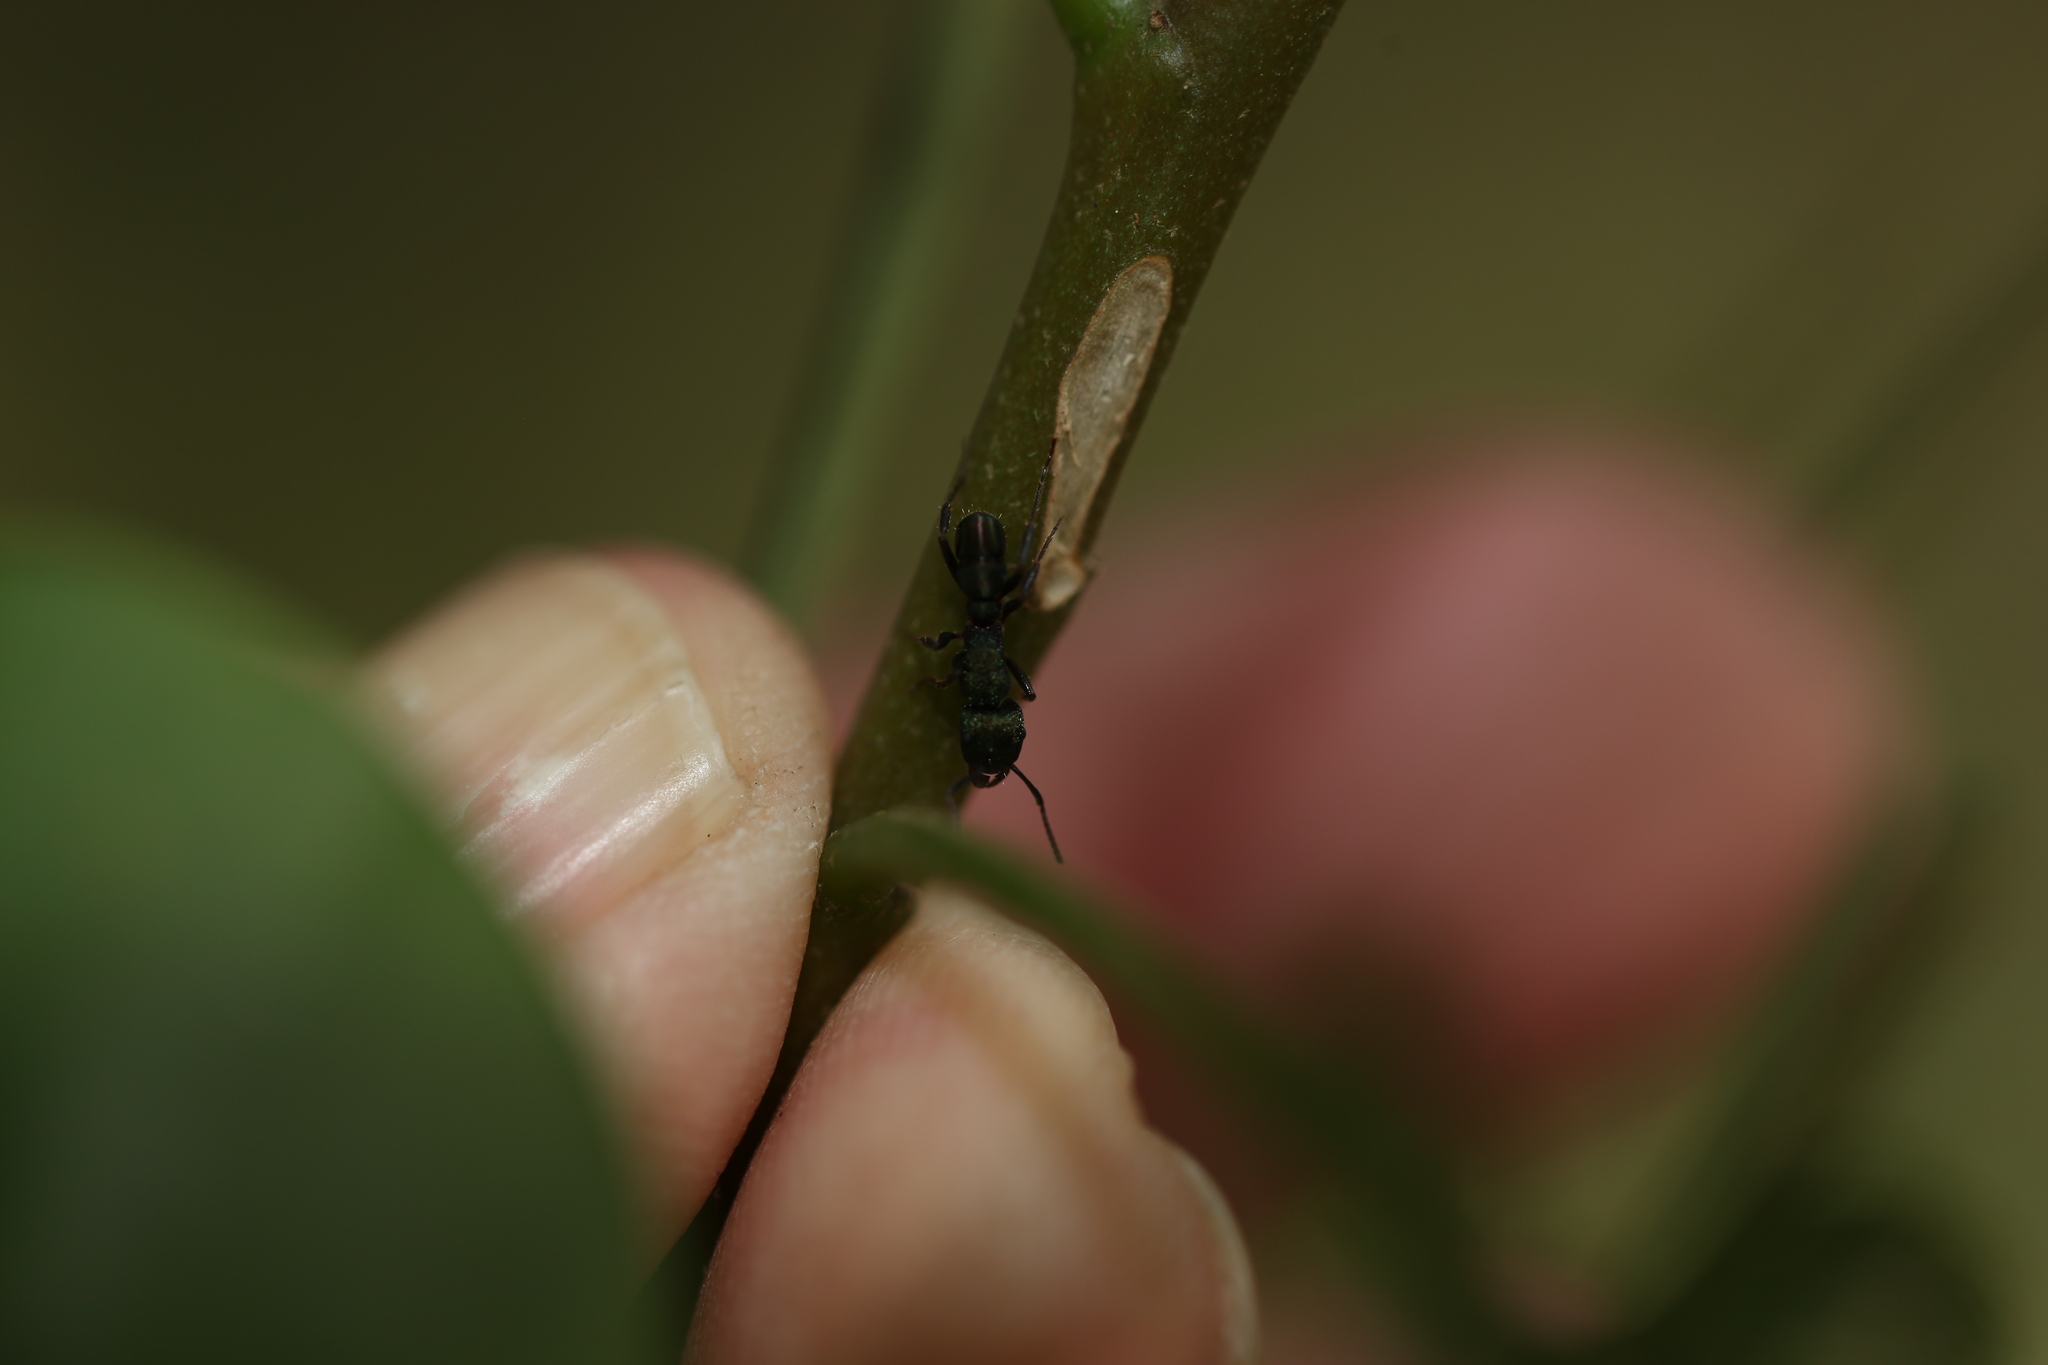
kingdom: Animalia
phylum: Arthropoda
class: Insecta
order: Hymenoptera
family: Formicidae
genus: Rhytidoponera
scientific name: Rhytidoponera metallica
